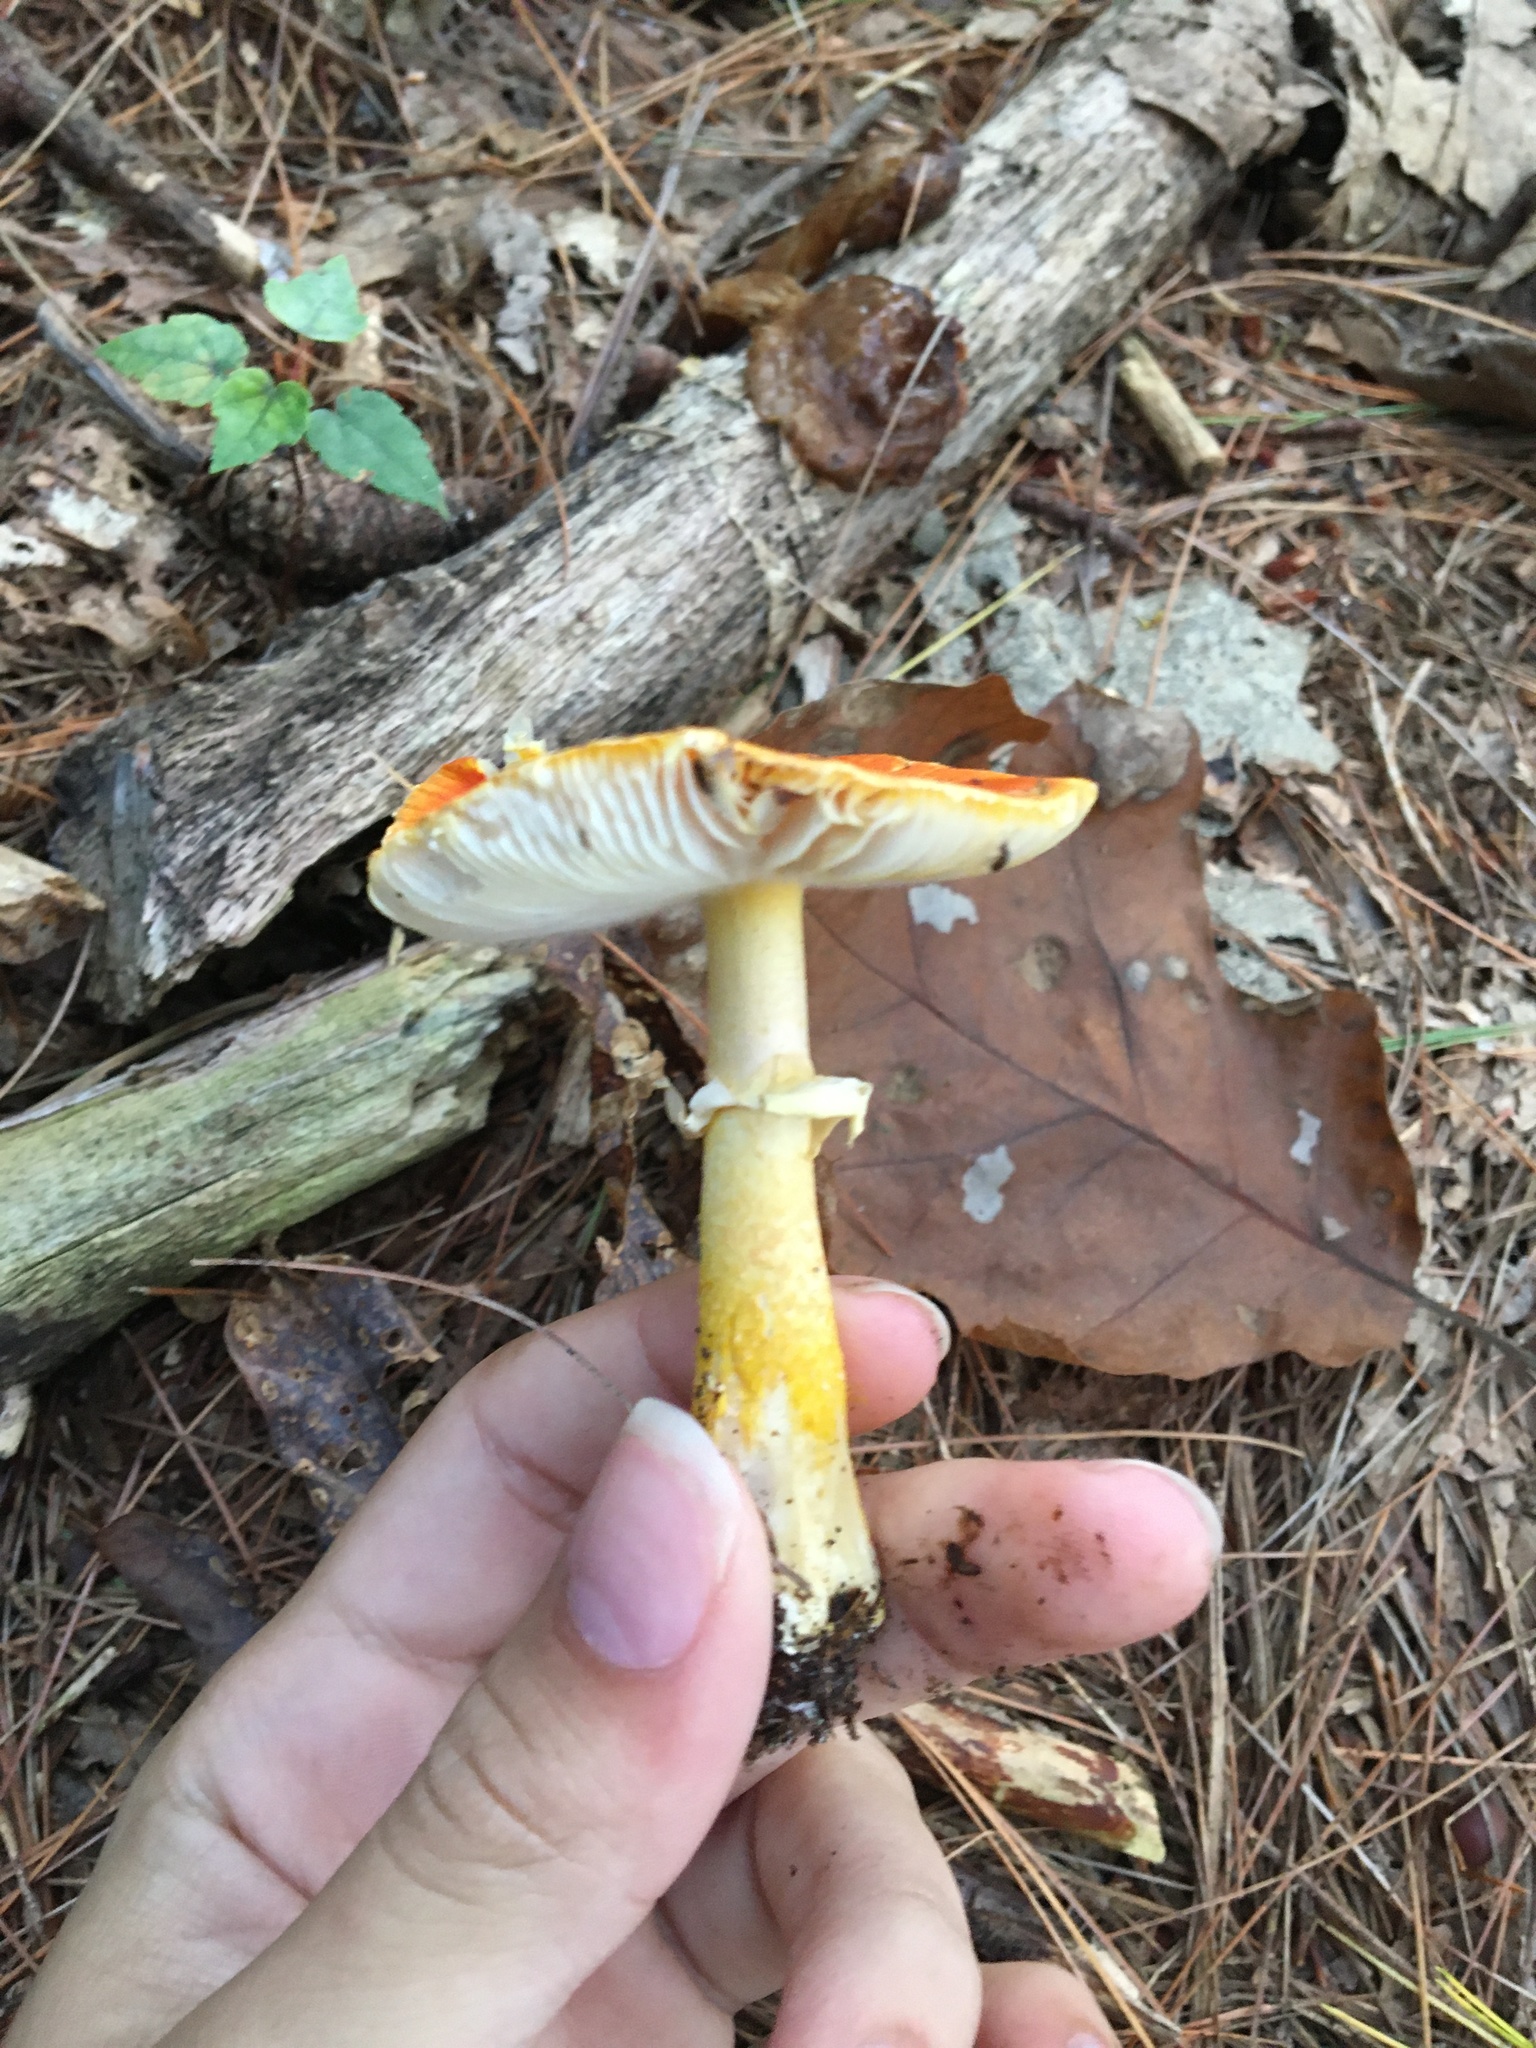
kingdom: Fungi
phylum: Basidiomycota
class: Agaricomycetes
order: Agaricales
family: Amanitaceae
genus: Amanita
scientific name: Amanita erythrocephala
